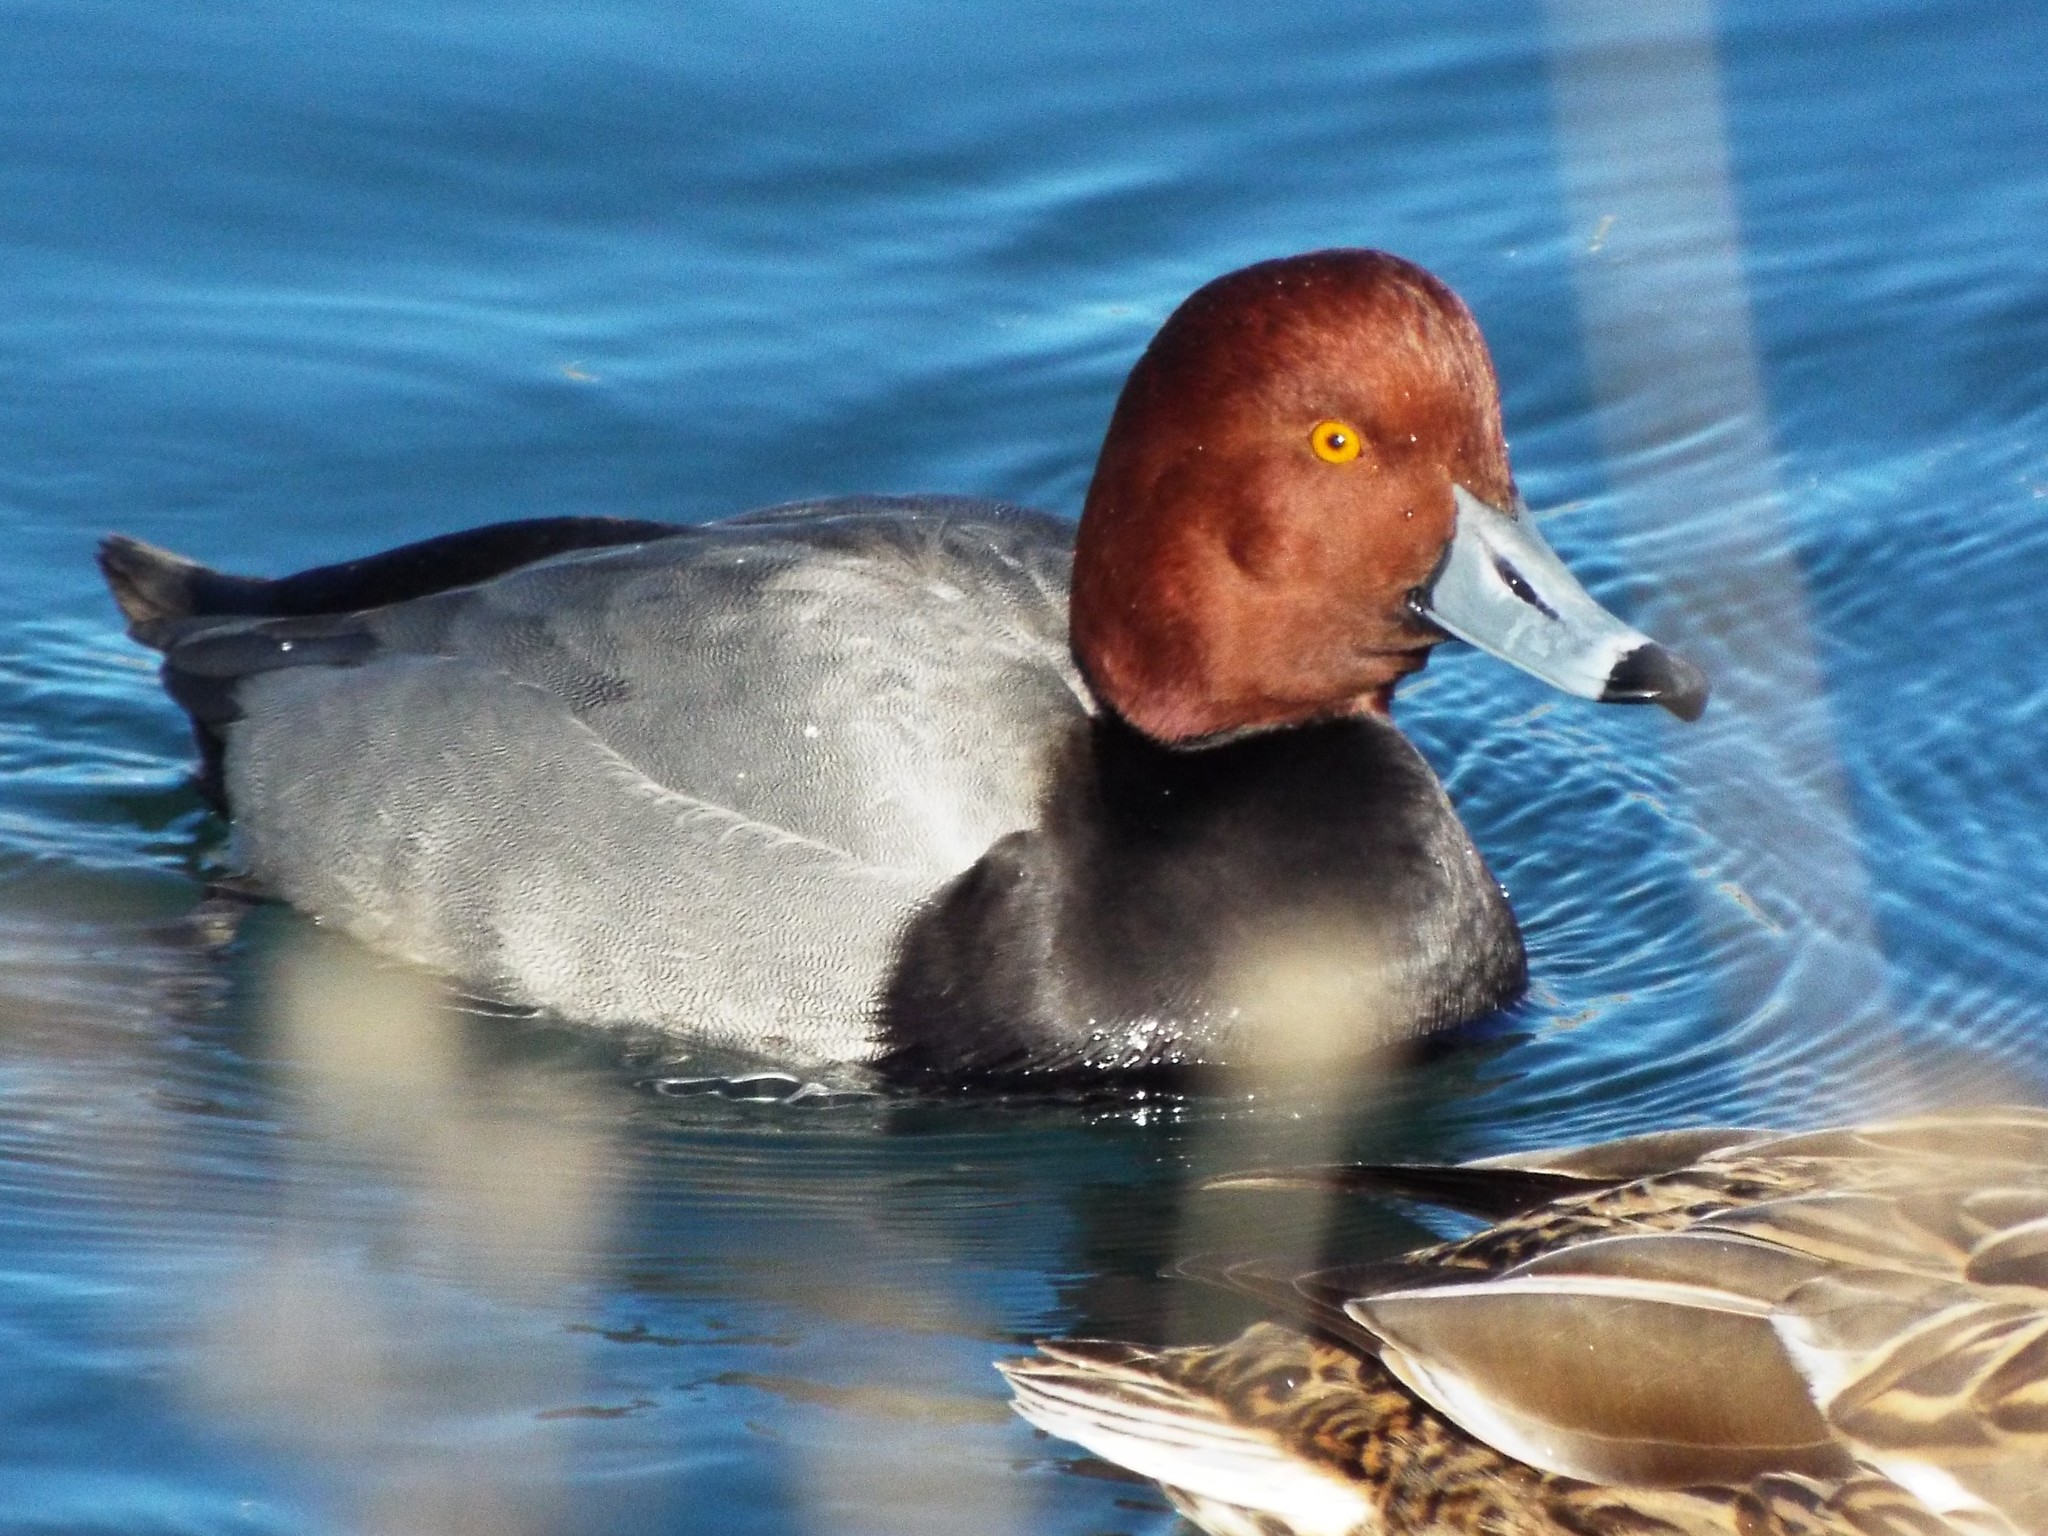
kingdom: Animalia
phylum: Chordata
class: Aves
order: Anseriformes
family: Anatidae
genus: Aythya
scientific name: Aythya americana
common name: Redhead
